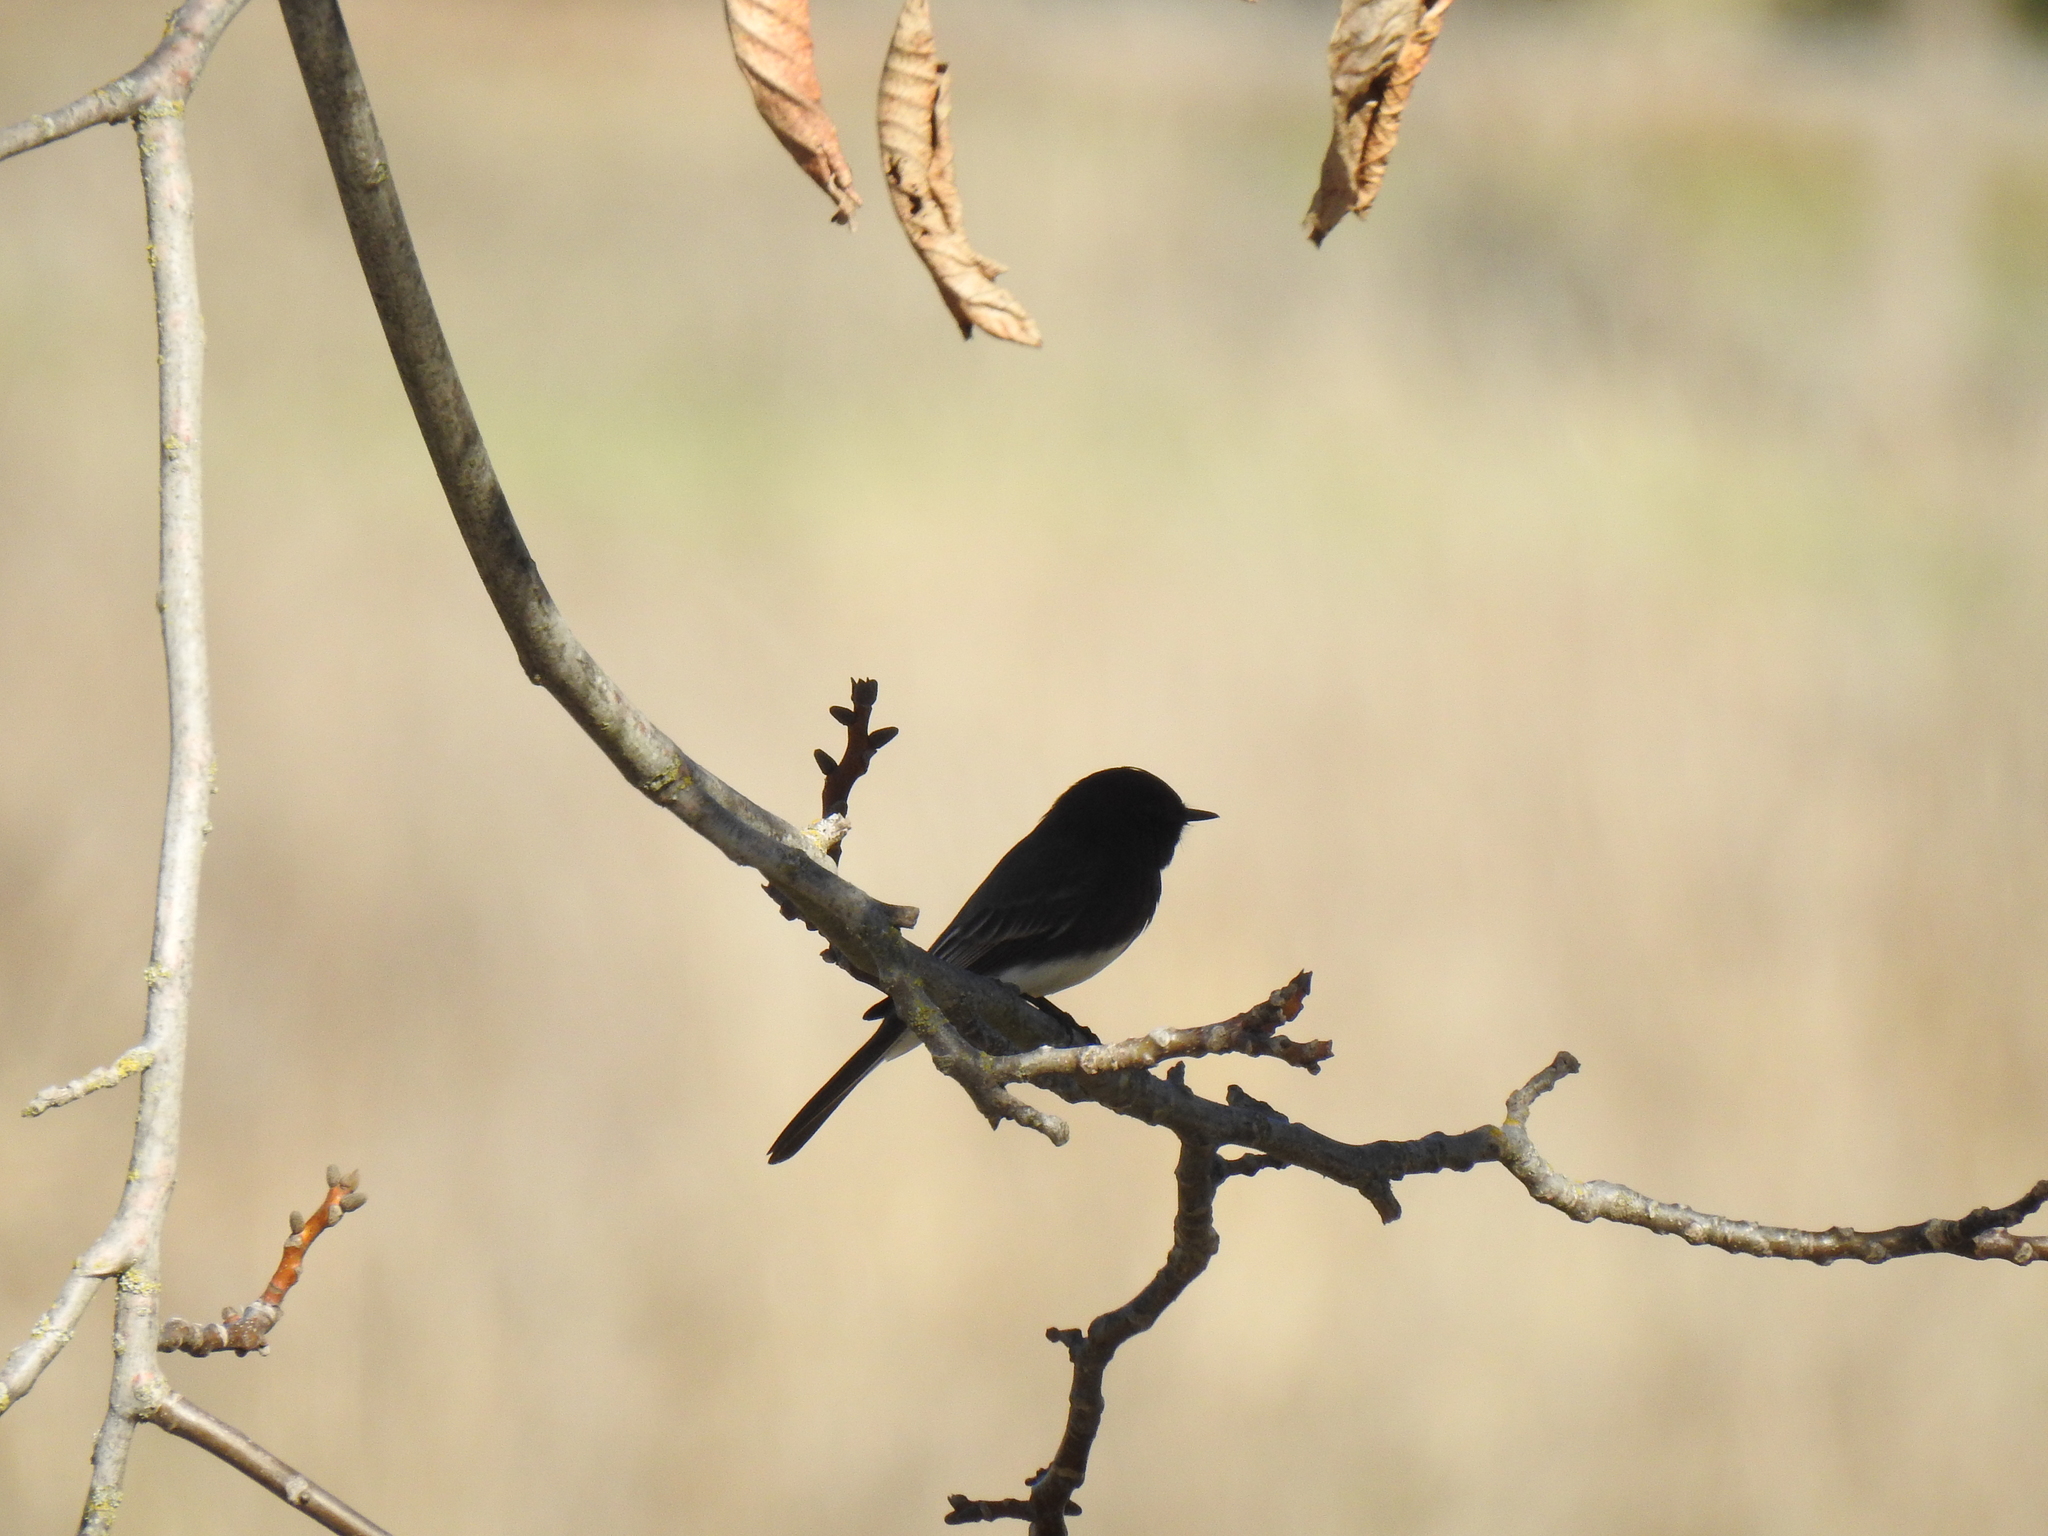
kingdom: Animalia
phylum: Chordata
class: Aves
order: Passeriformes
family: Tyrannidae
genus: Sayornis
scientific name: Sayornis nigricans
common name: Black phoebe
